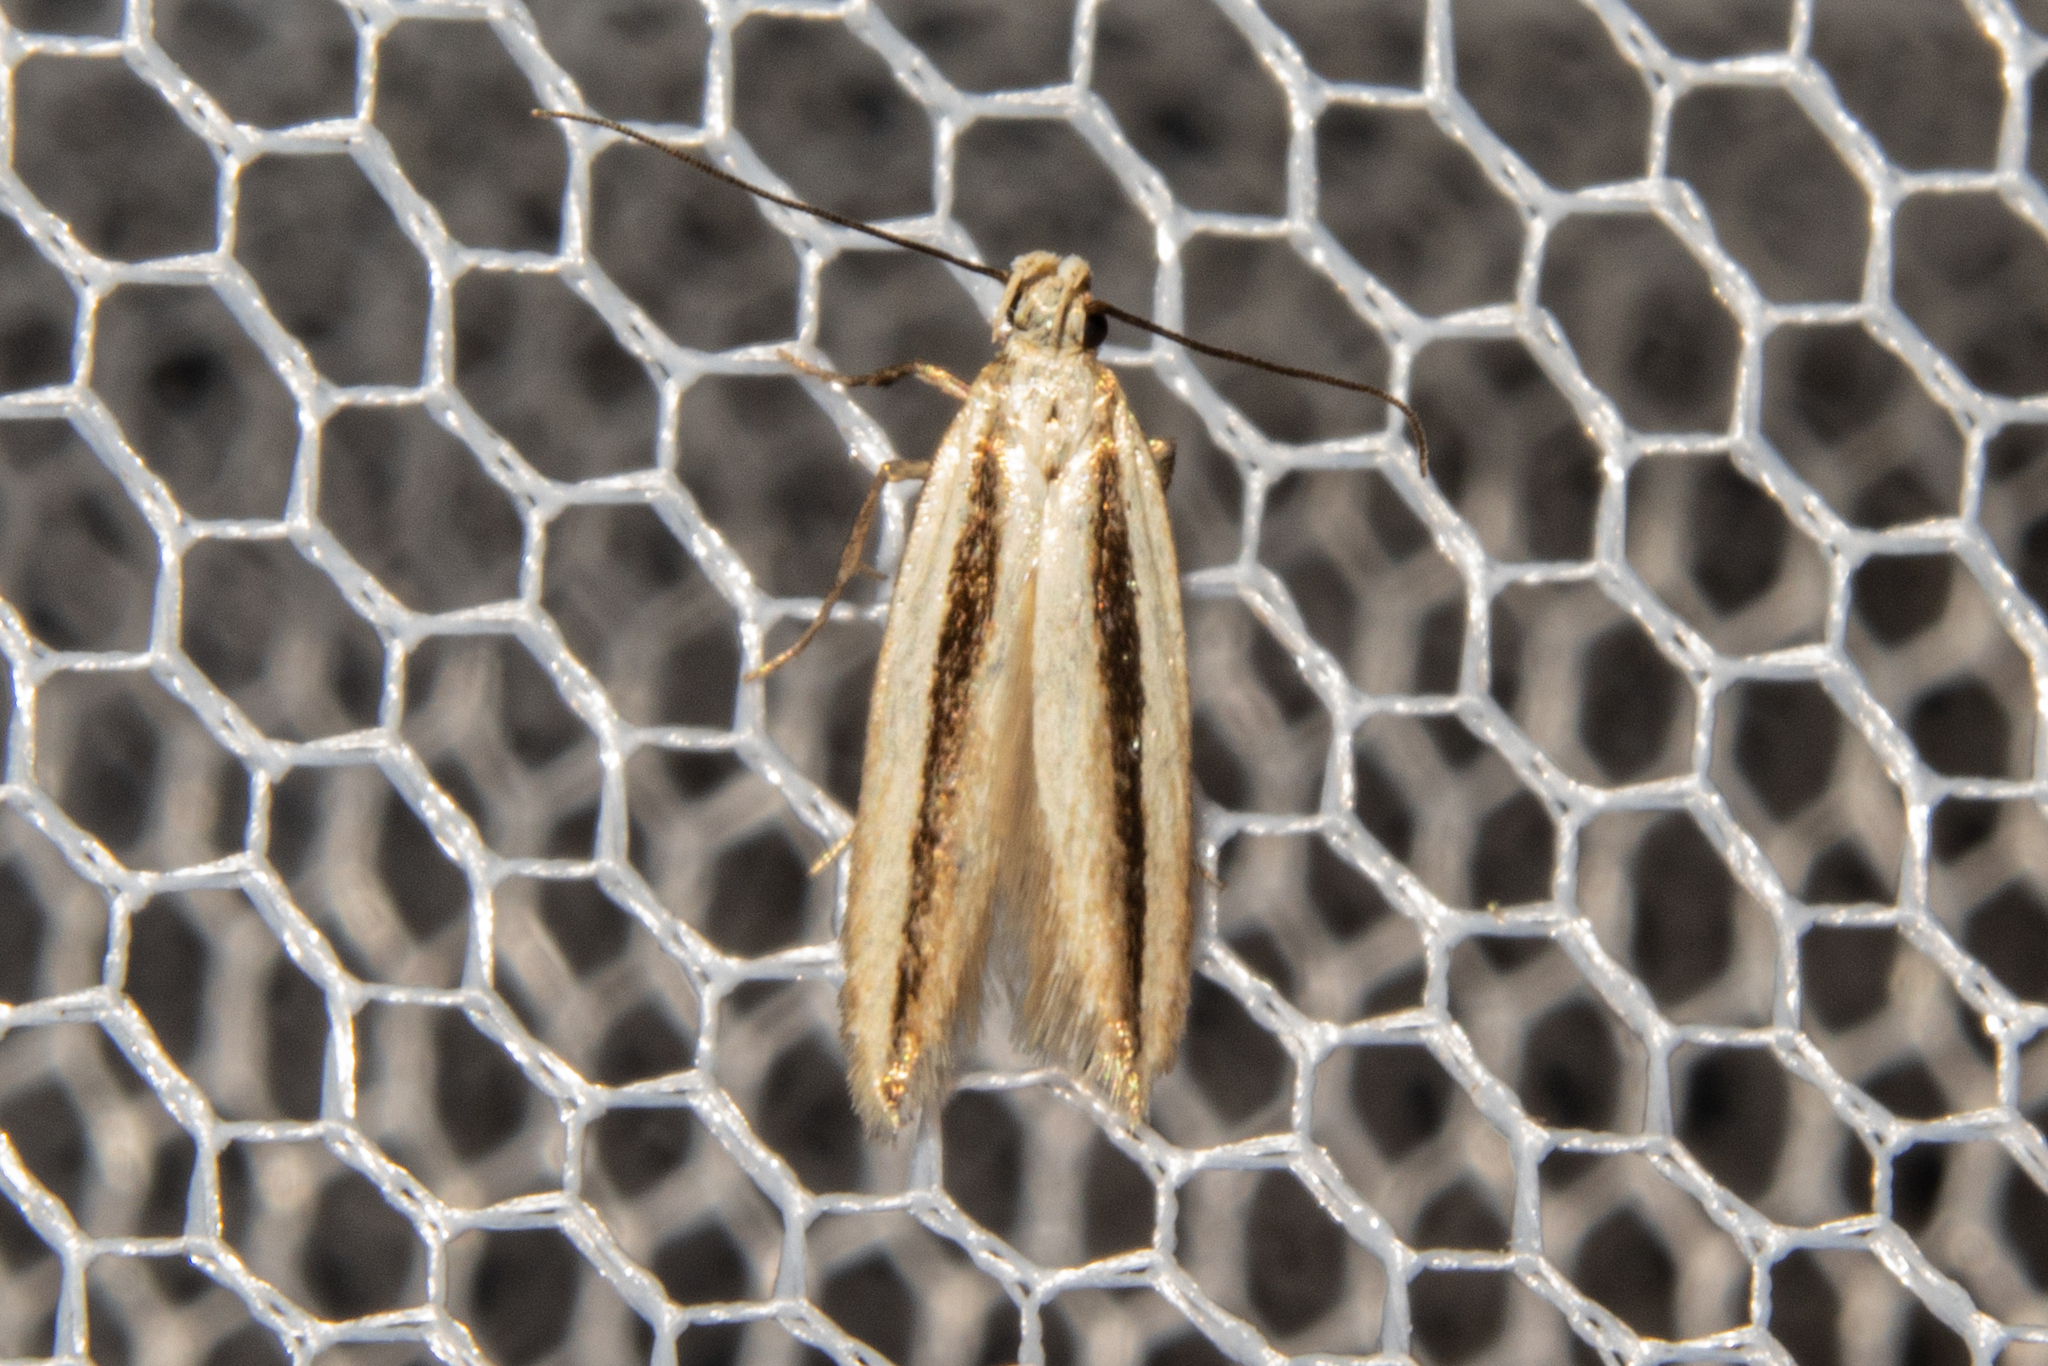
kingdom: Animalia
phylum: Arthropoda
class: Insecta
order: Lepidoptera
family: Gelechiidae
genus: Kiwaia
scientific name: Kiwaia monophragma
